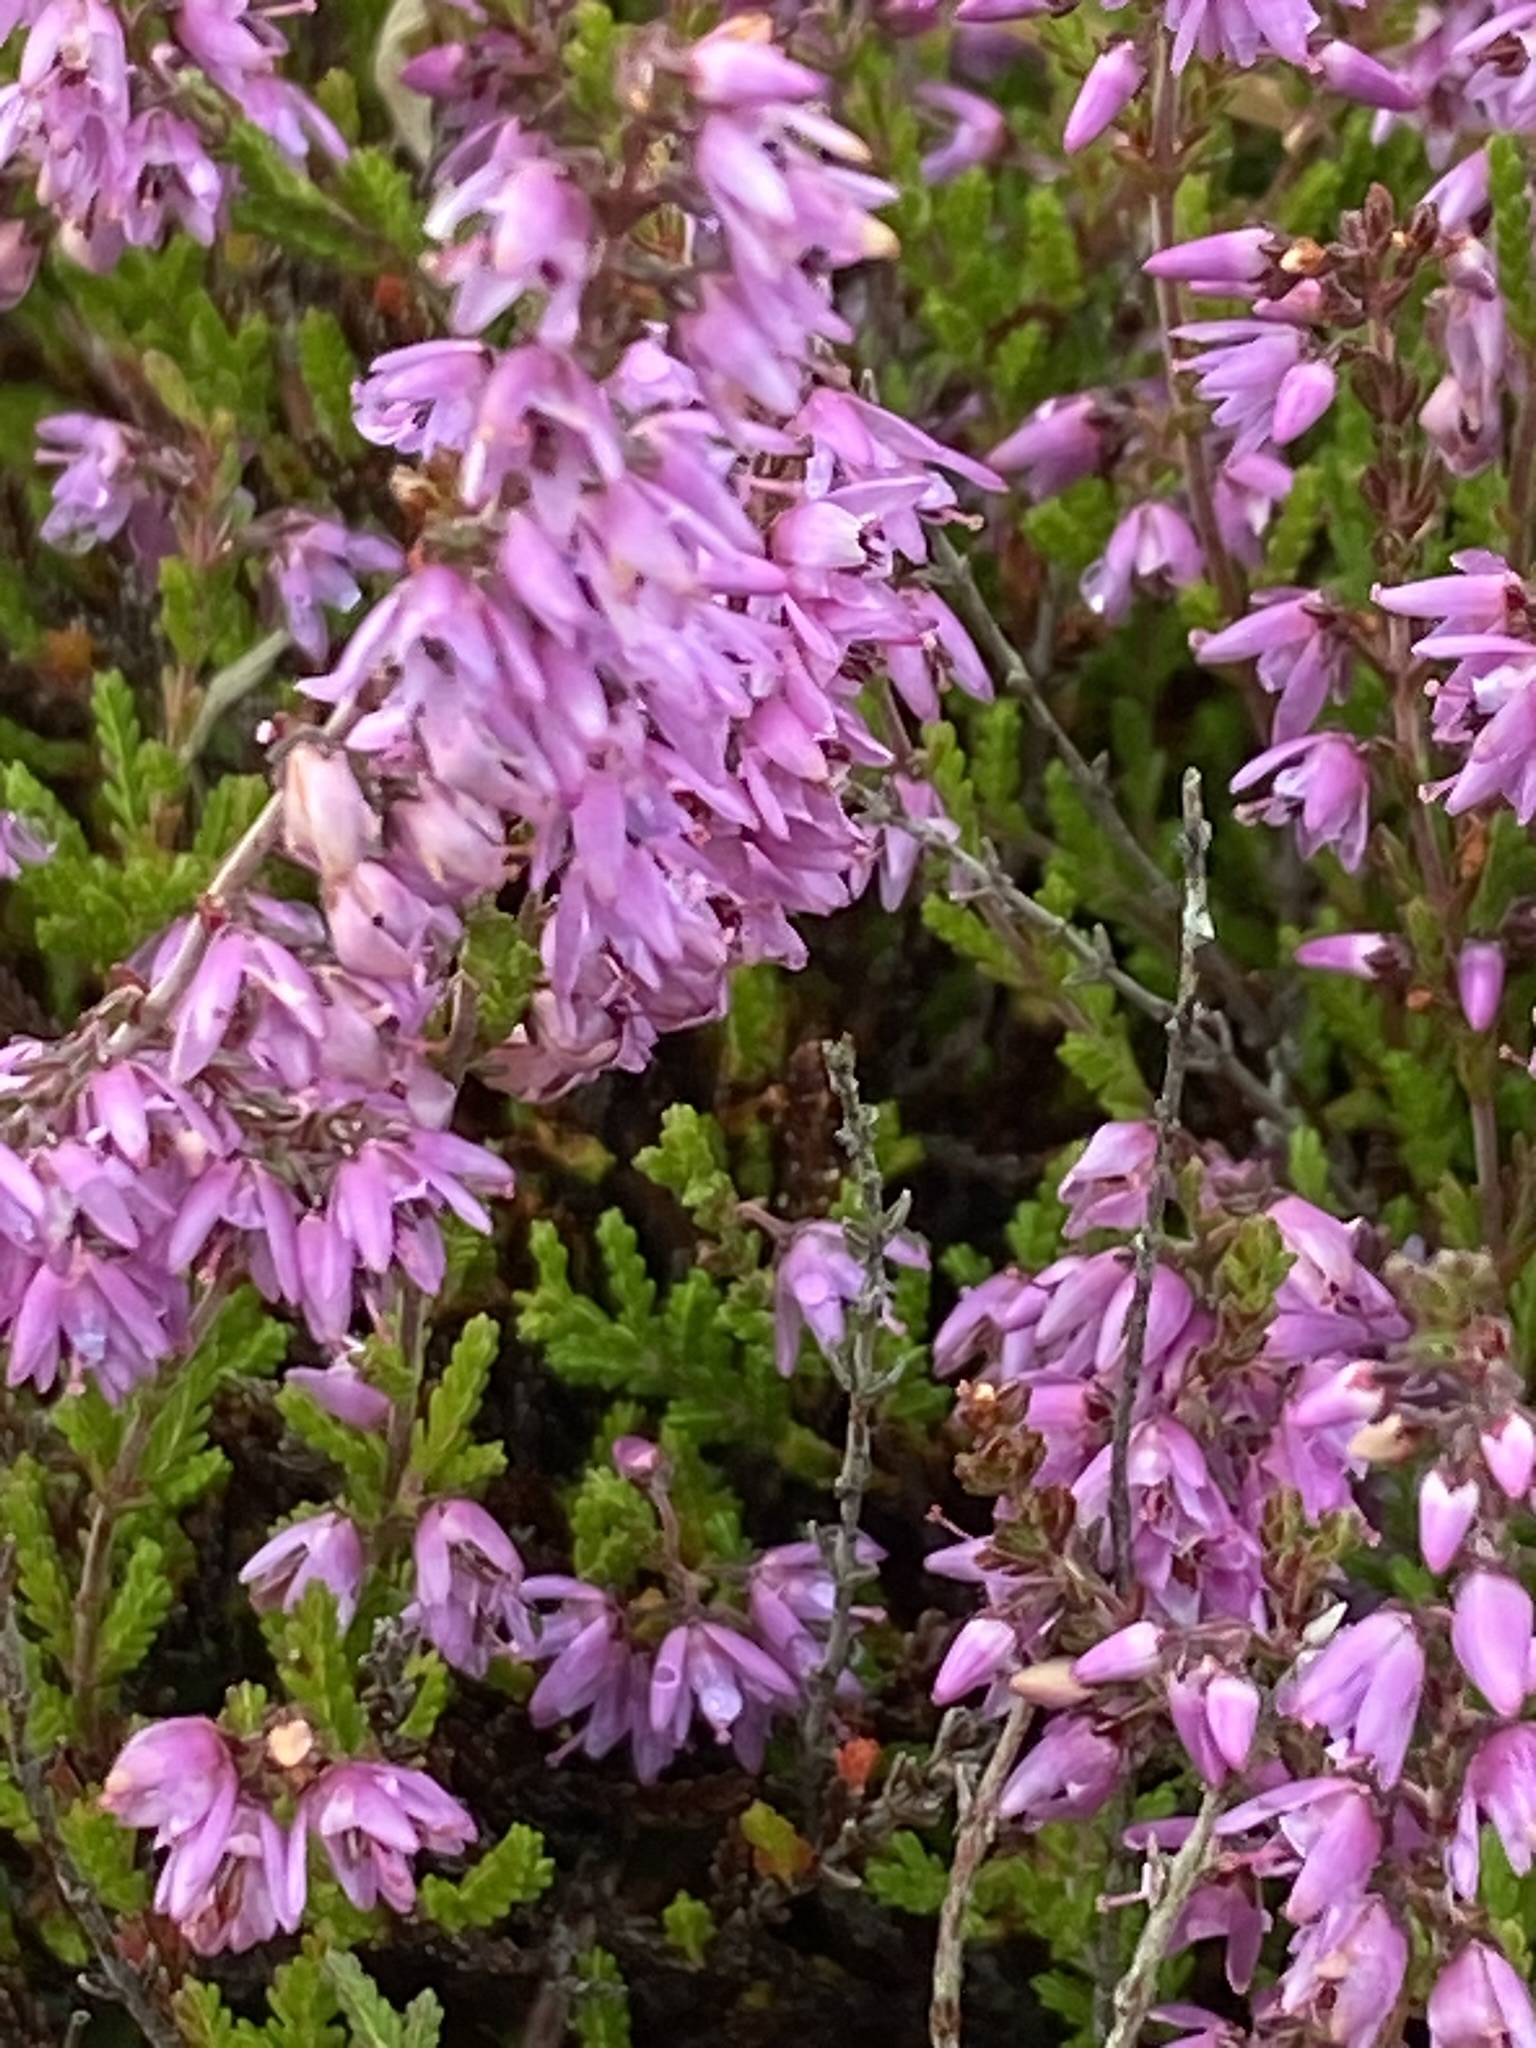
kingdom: Plantae
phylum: Tracheophyta
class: Magnoliopsida
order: Ericales
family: Ericaceae
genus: Calluna
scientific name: Calluna vulgaris
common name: Heather
